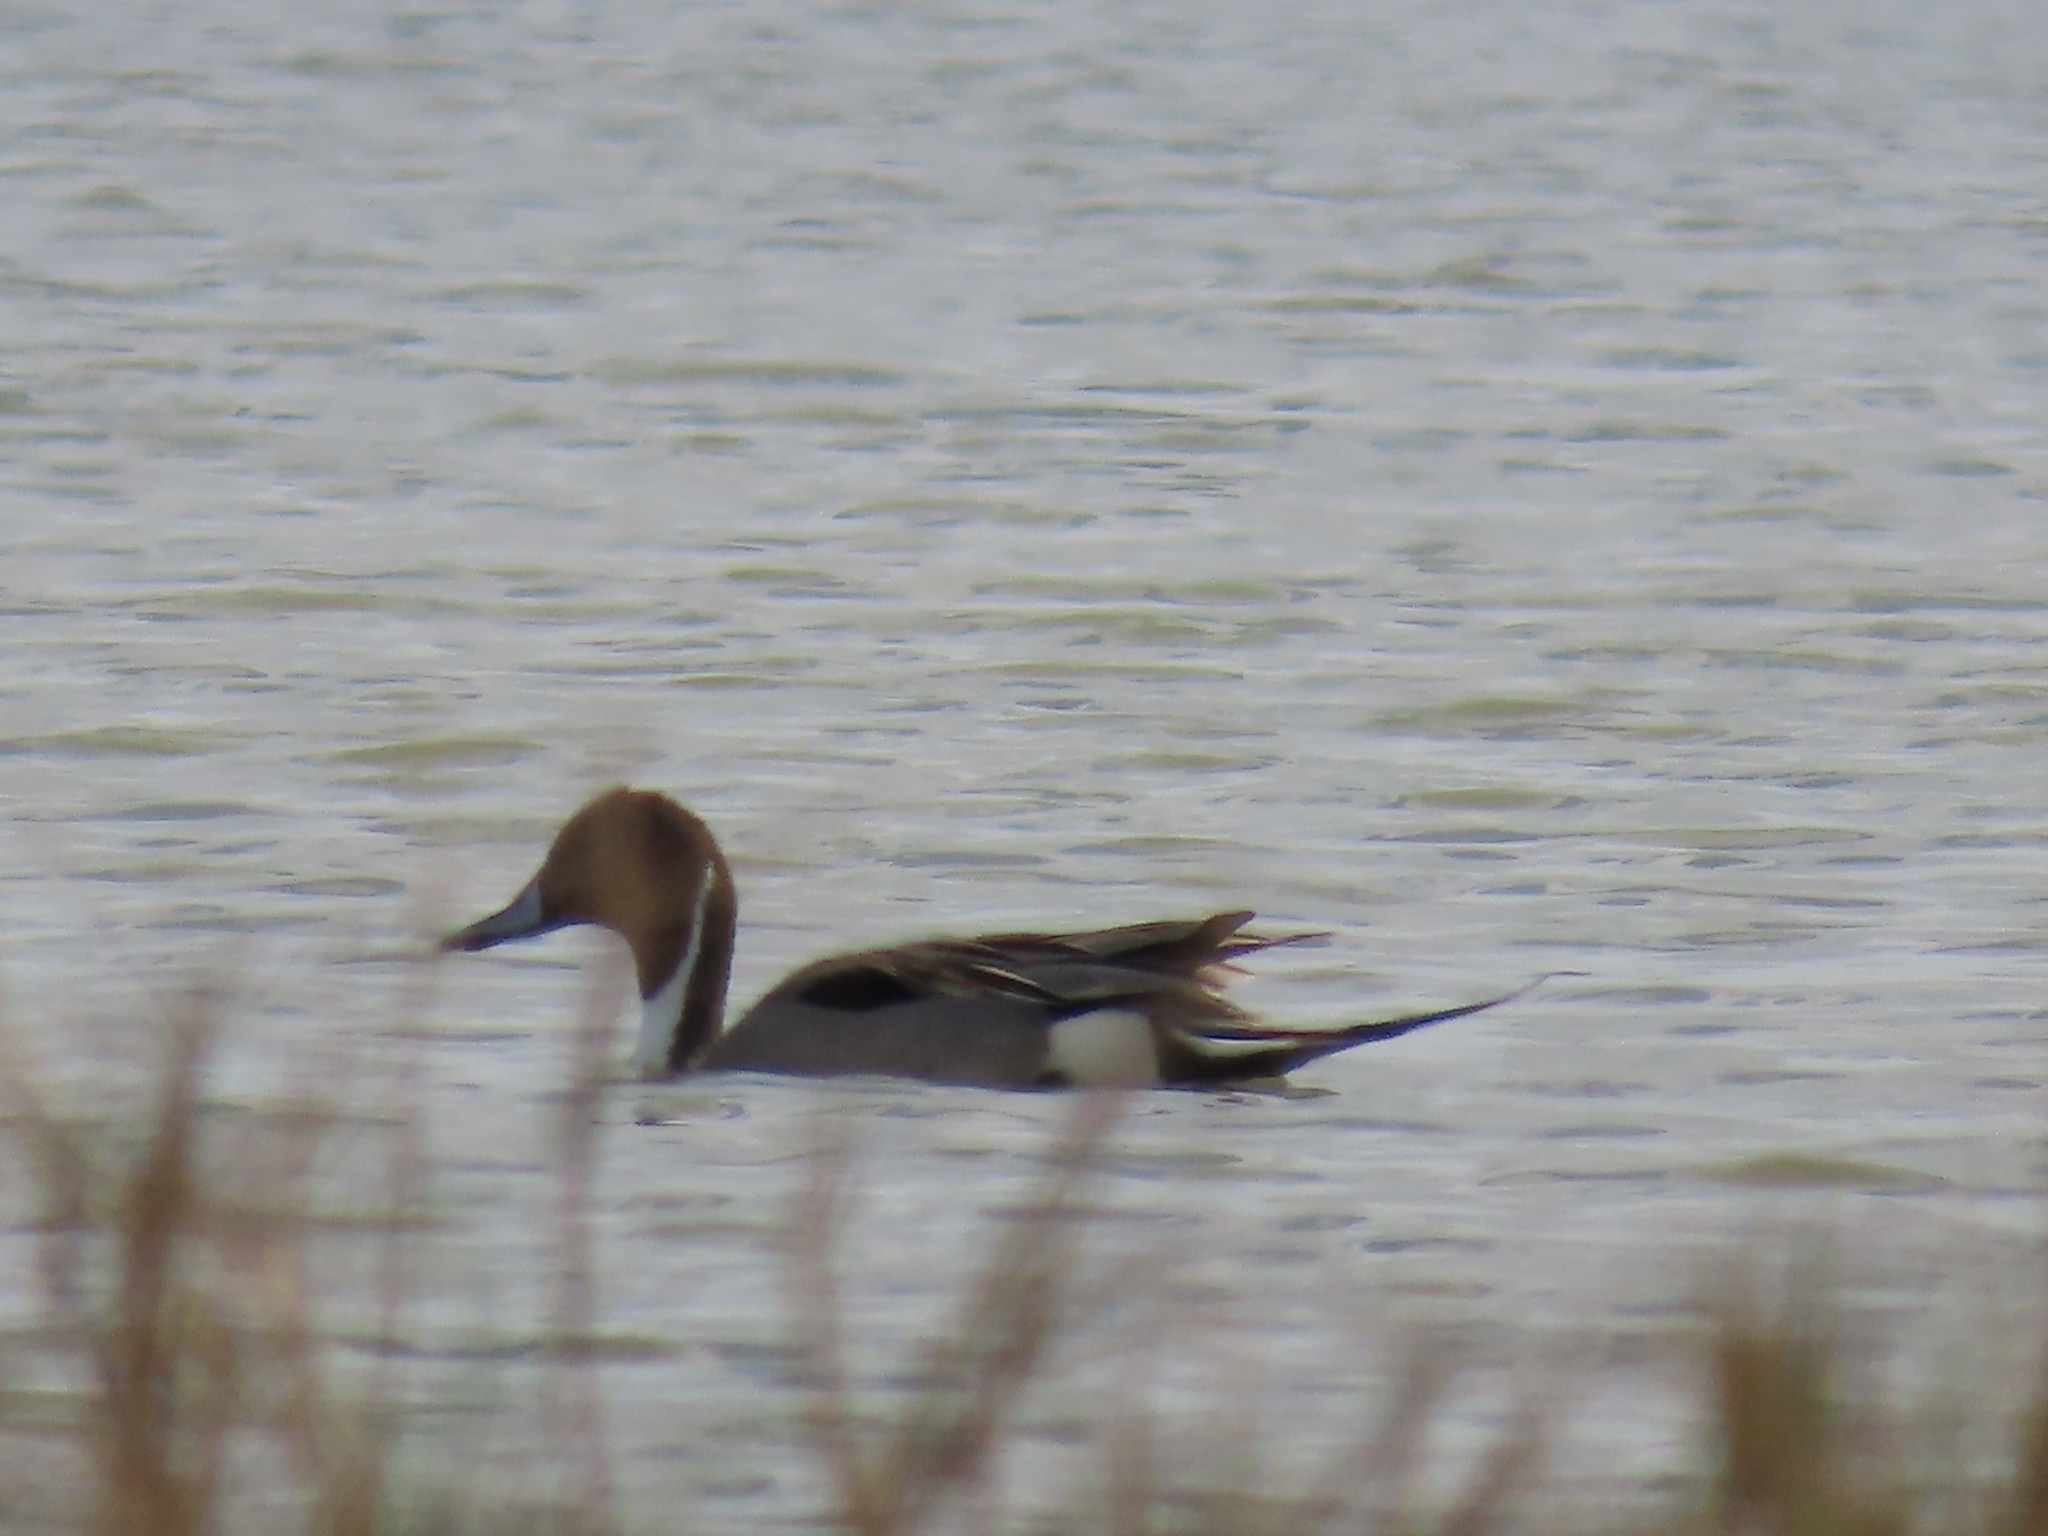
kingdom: Animalia
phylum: Chordata
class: Aves
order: Anseriformes
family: Anatidae
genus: Anas
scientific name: Anas acuta
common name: Northern pintail
